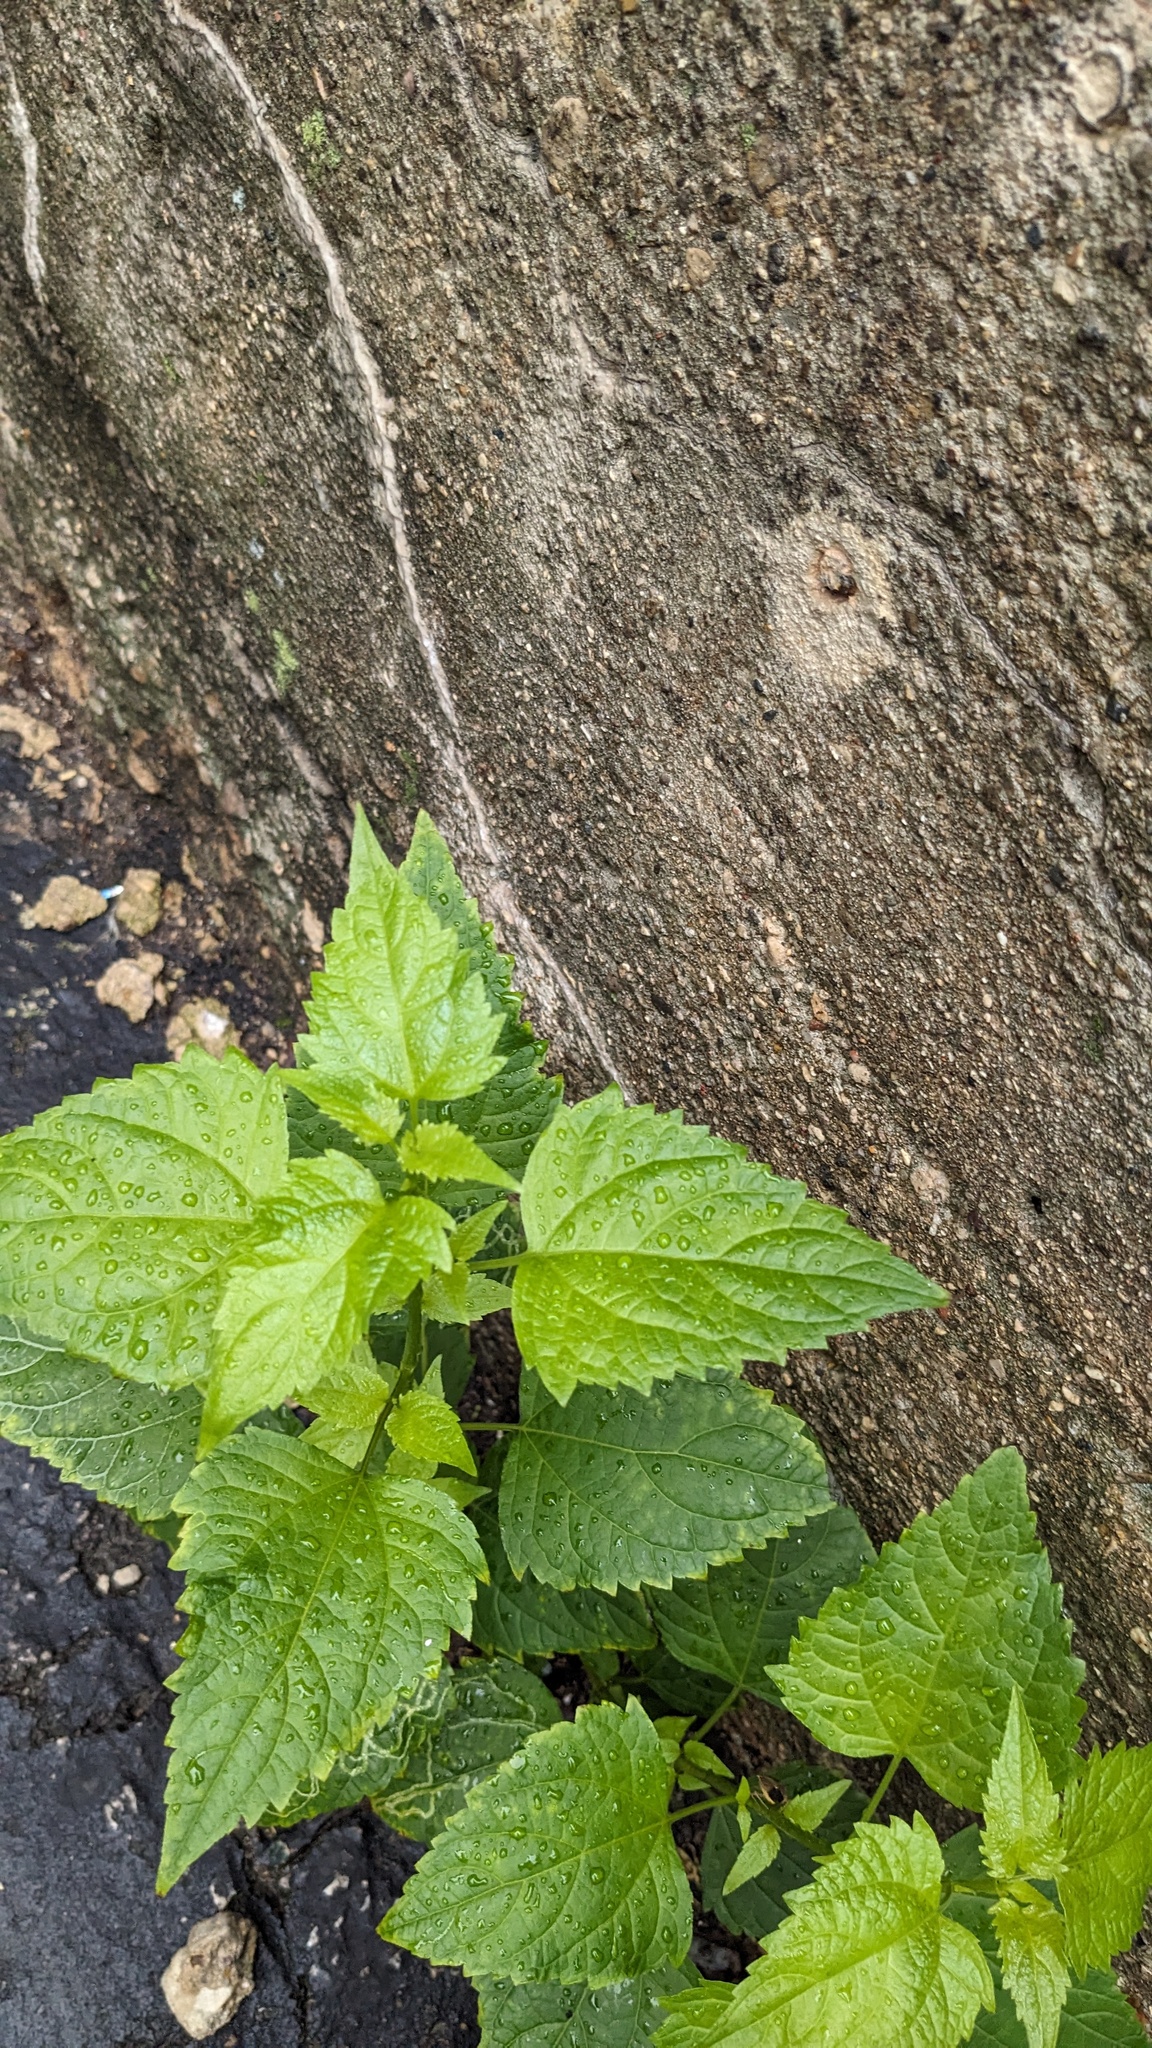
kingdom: Plantae
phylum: Tracheophyta
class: Magnoliopsida
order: Asterales
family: Asteraceae
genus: Ageratina
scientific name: Ageratina altissima
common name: White snakeroot
